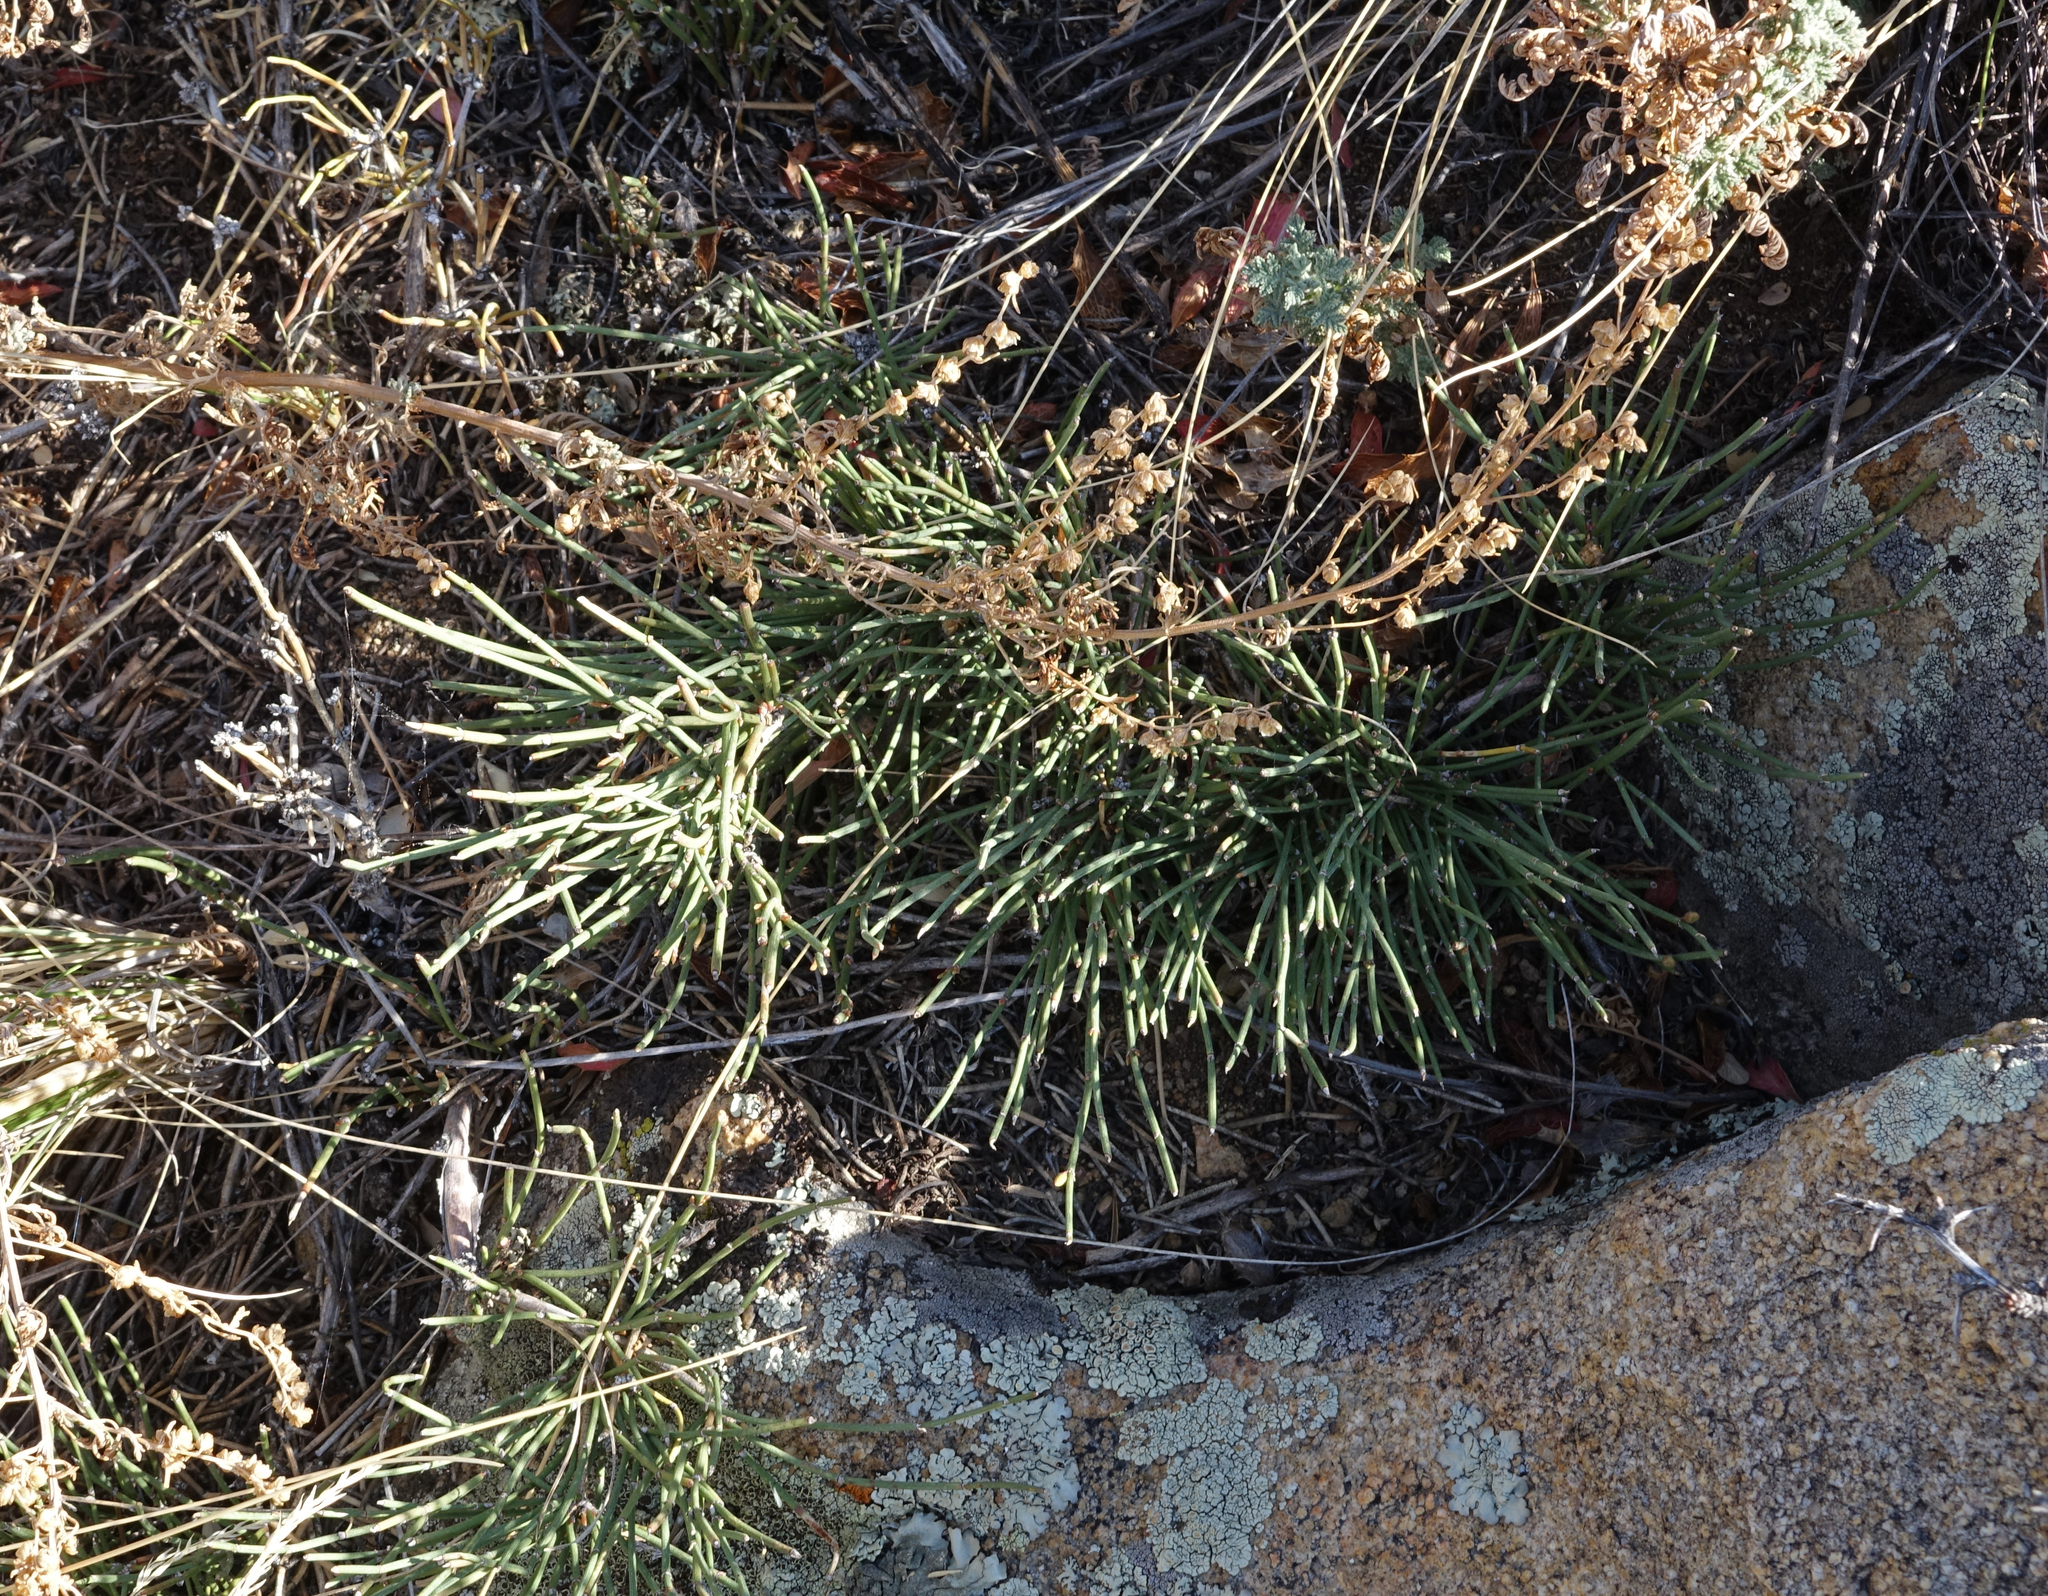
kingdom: Plantae
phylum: Tracheophyta
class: Gnetopsida
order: Ephedrales
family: Ephedraceae
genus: Ephedra
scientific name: Ephedra monosperma
